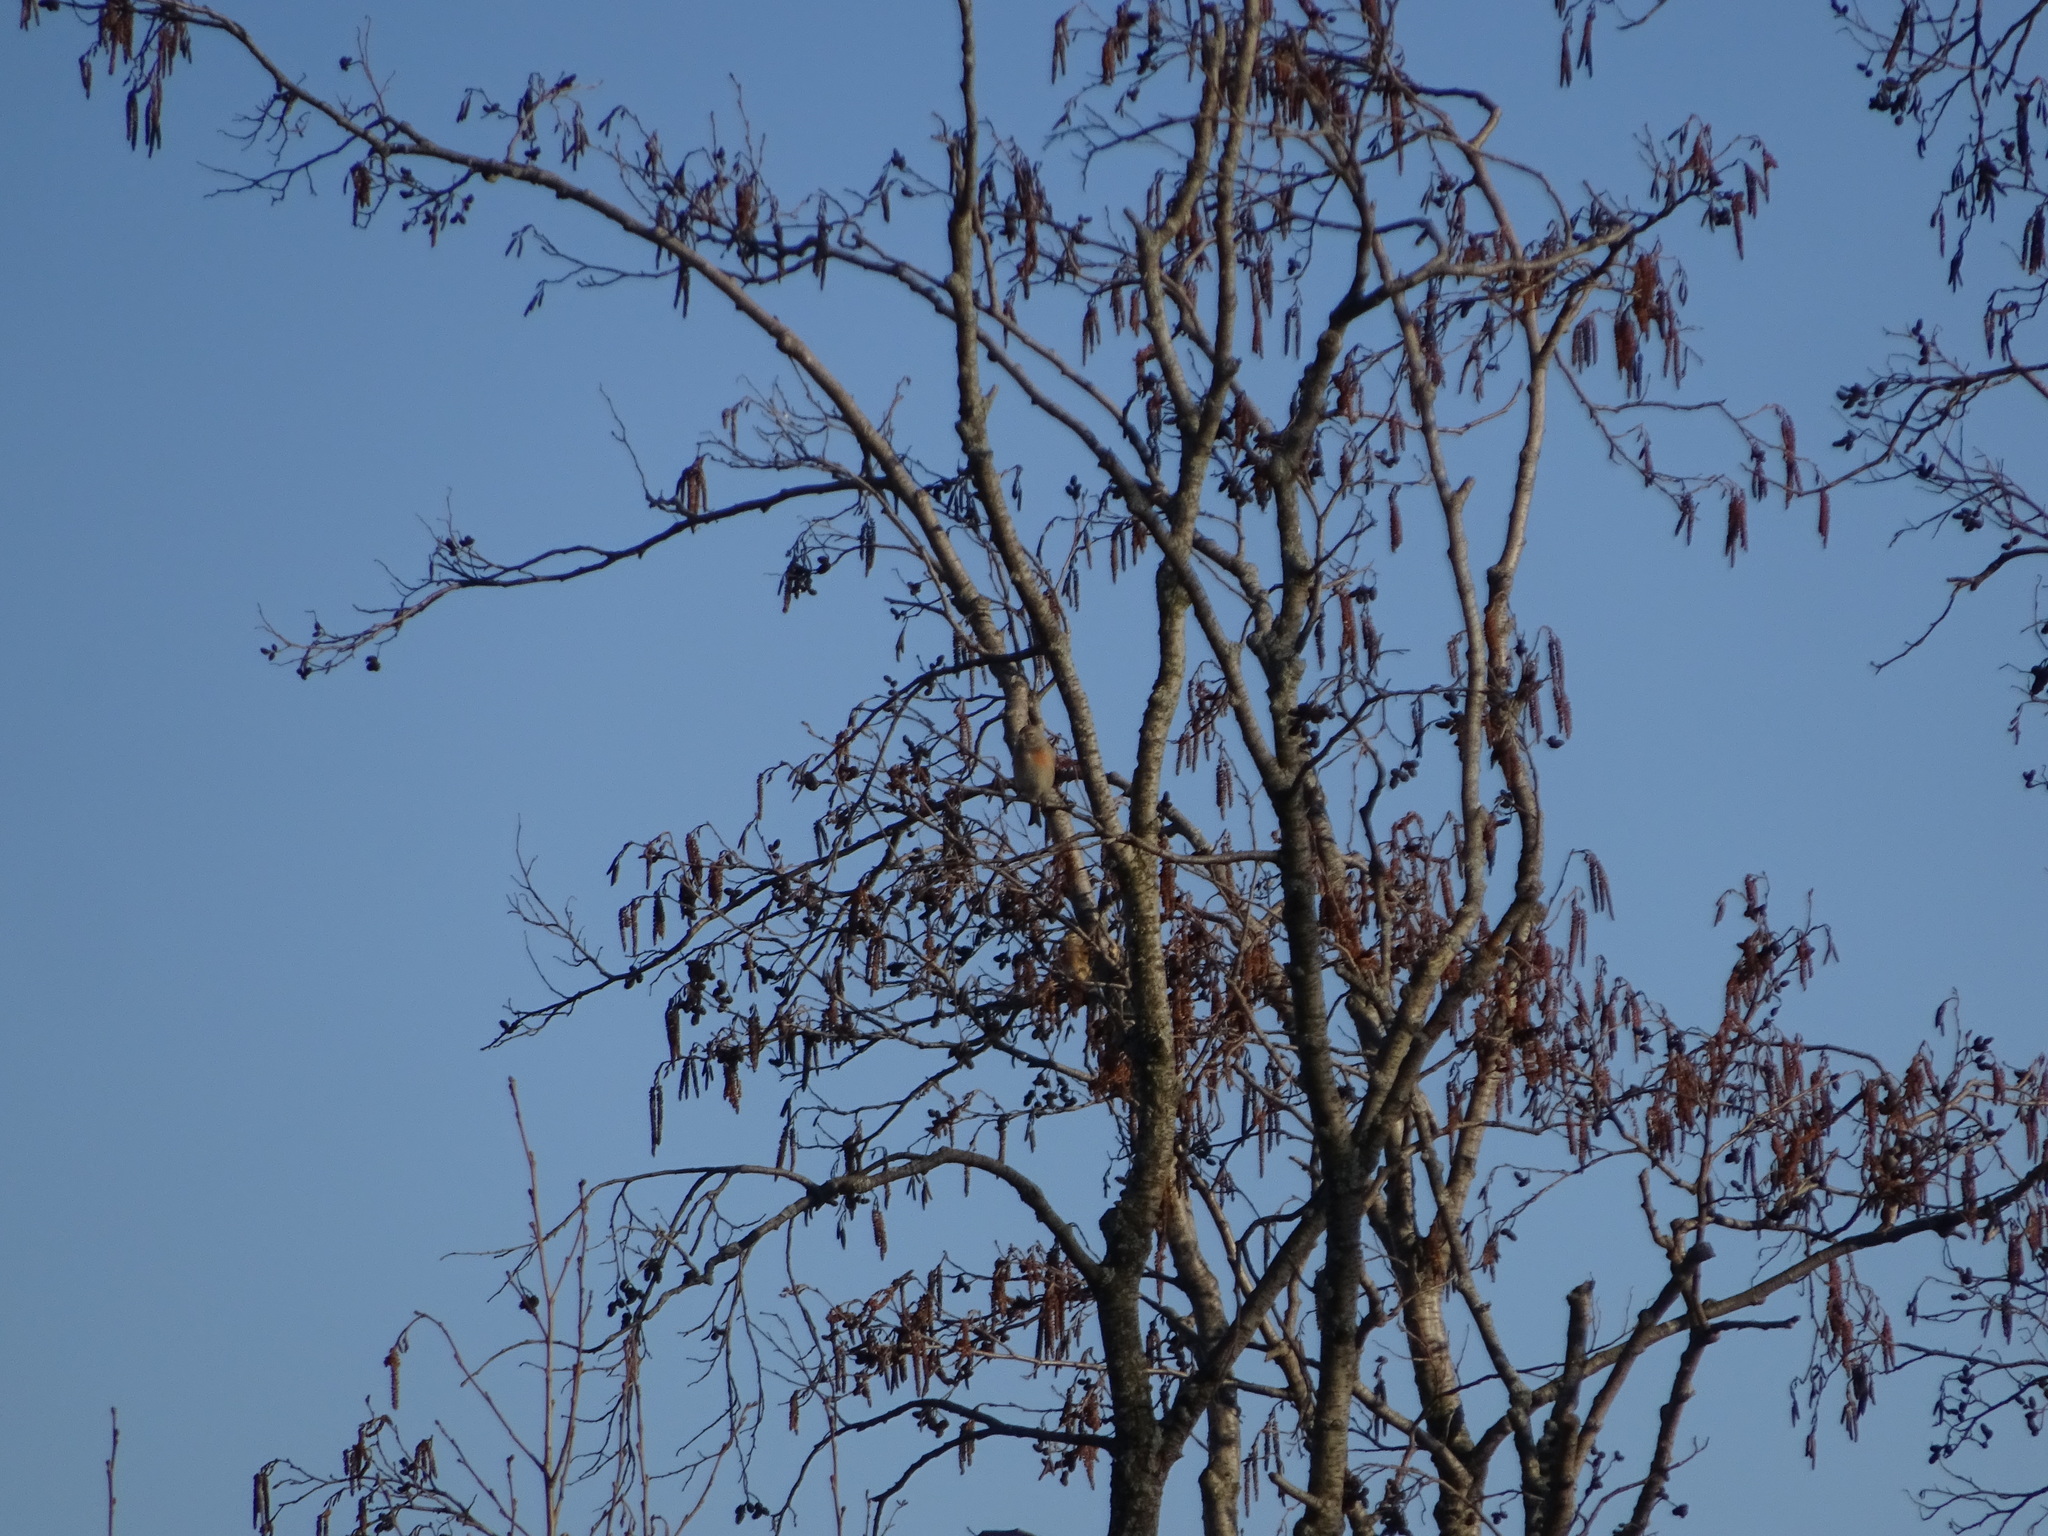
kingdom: Animalia
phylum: Chordata
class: Aves
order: Passeriformes
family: Fringillidae
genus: Linaria
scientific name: Linaria cannabina
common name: Common linnet
